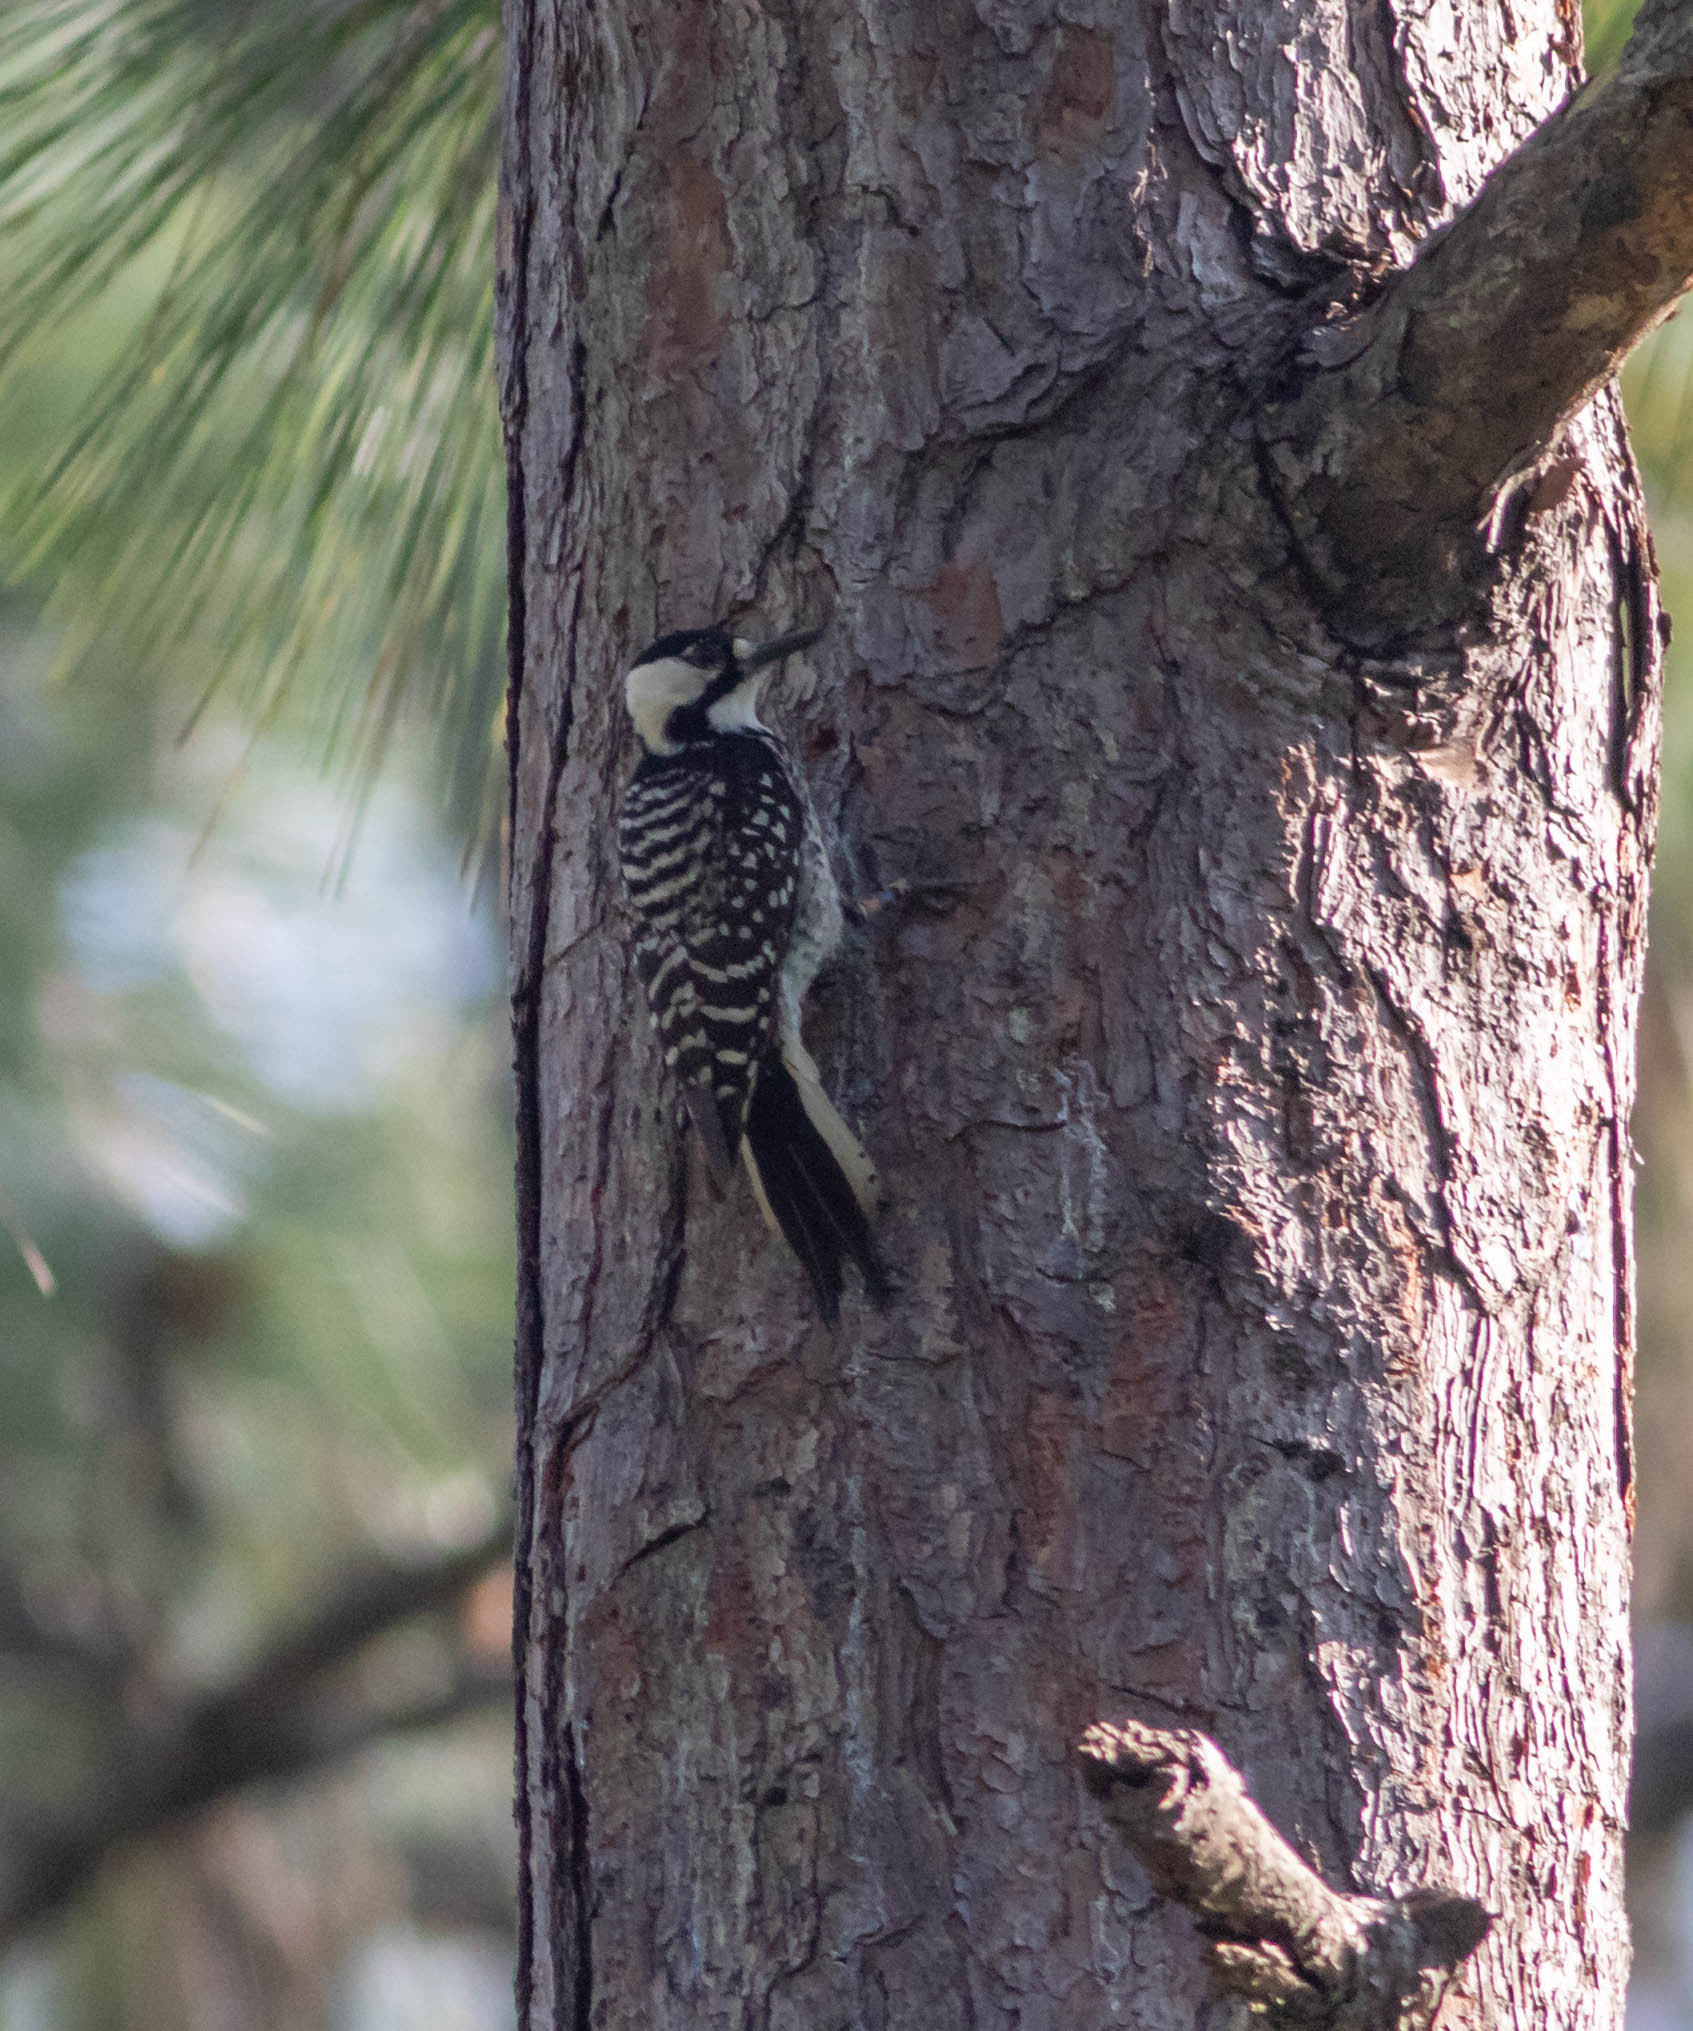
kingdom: Animalia
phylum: Chordata
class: Aves
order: Piciformes
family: Picidae
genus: Leuconotopicus
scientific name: Leuconotopicus borealis
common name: Red-cockaded woodpecker
